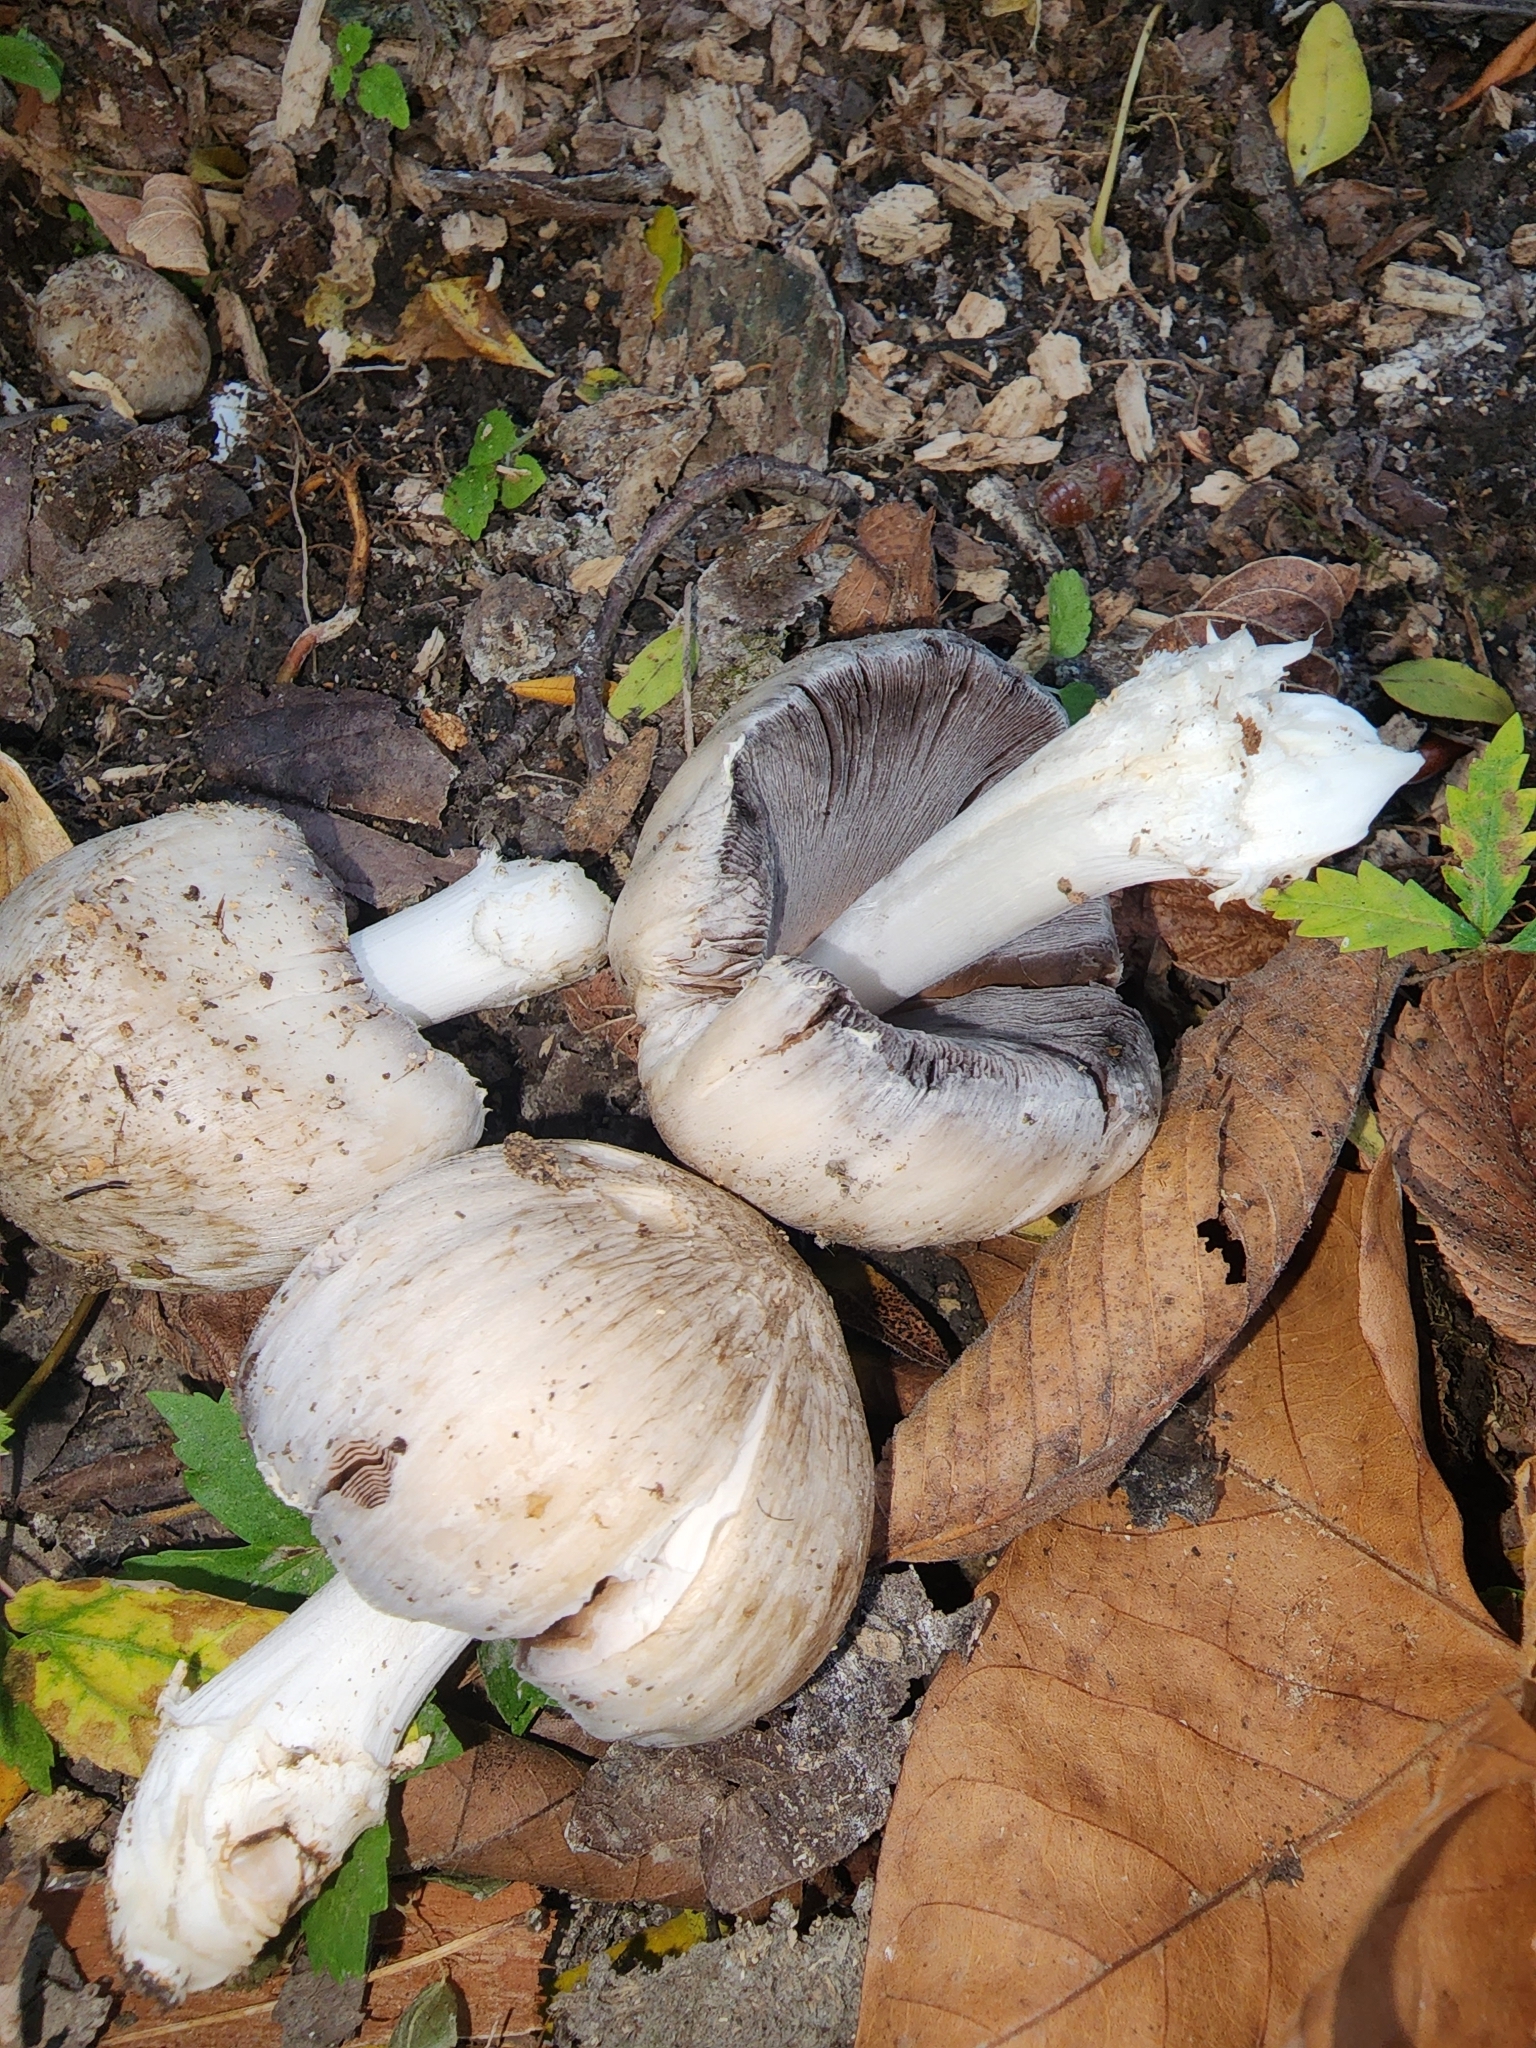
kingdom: Fungi
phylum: Basidiomycota
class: Agaricomycetes
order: Agaricales
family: Psathyrellaceae
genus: Coprinopsis
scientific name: Coprinopsis atramentaria
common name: Common ink-cap
